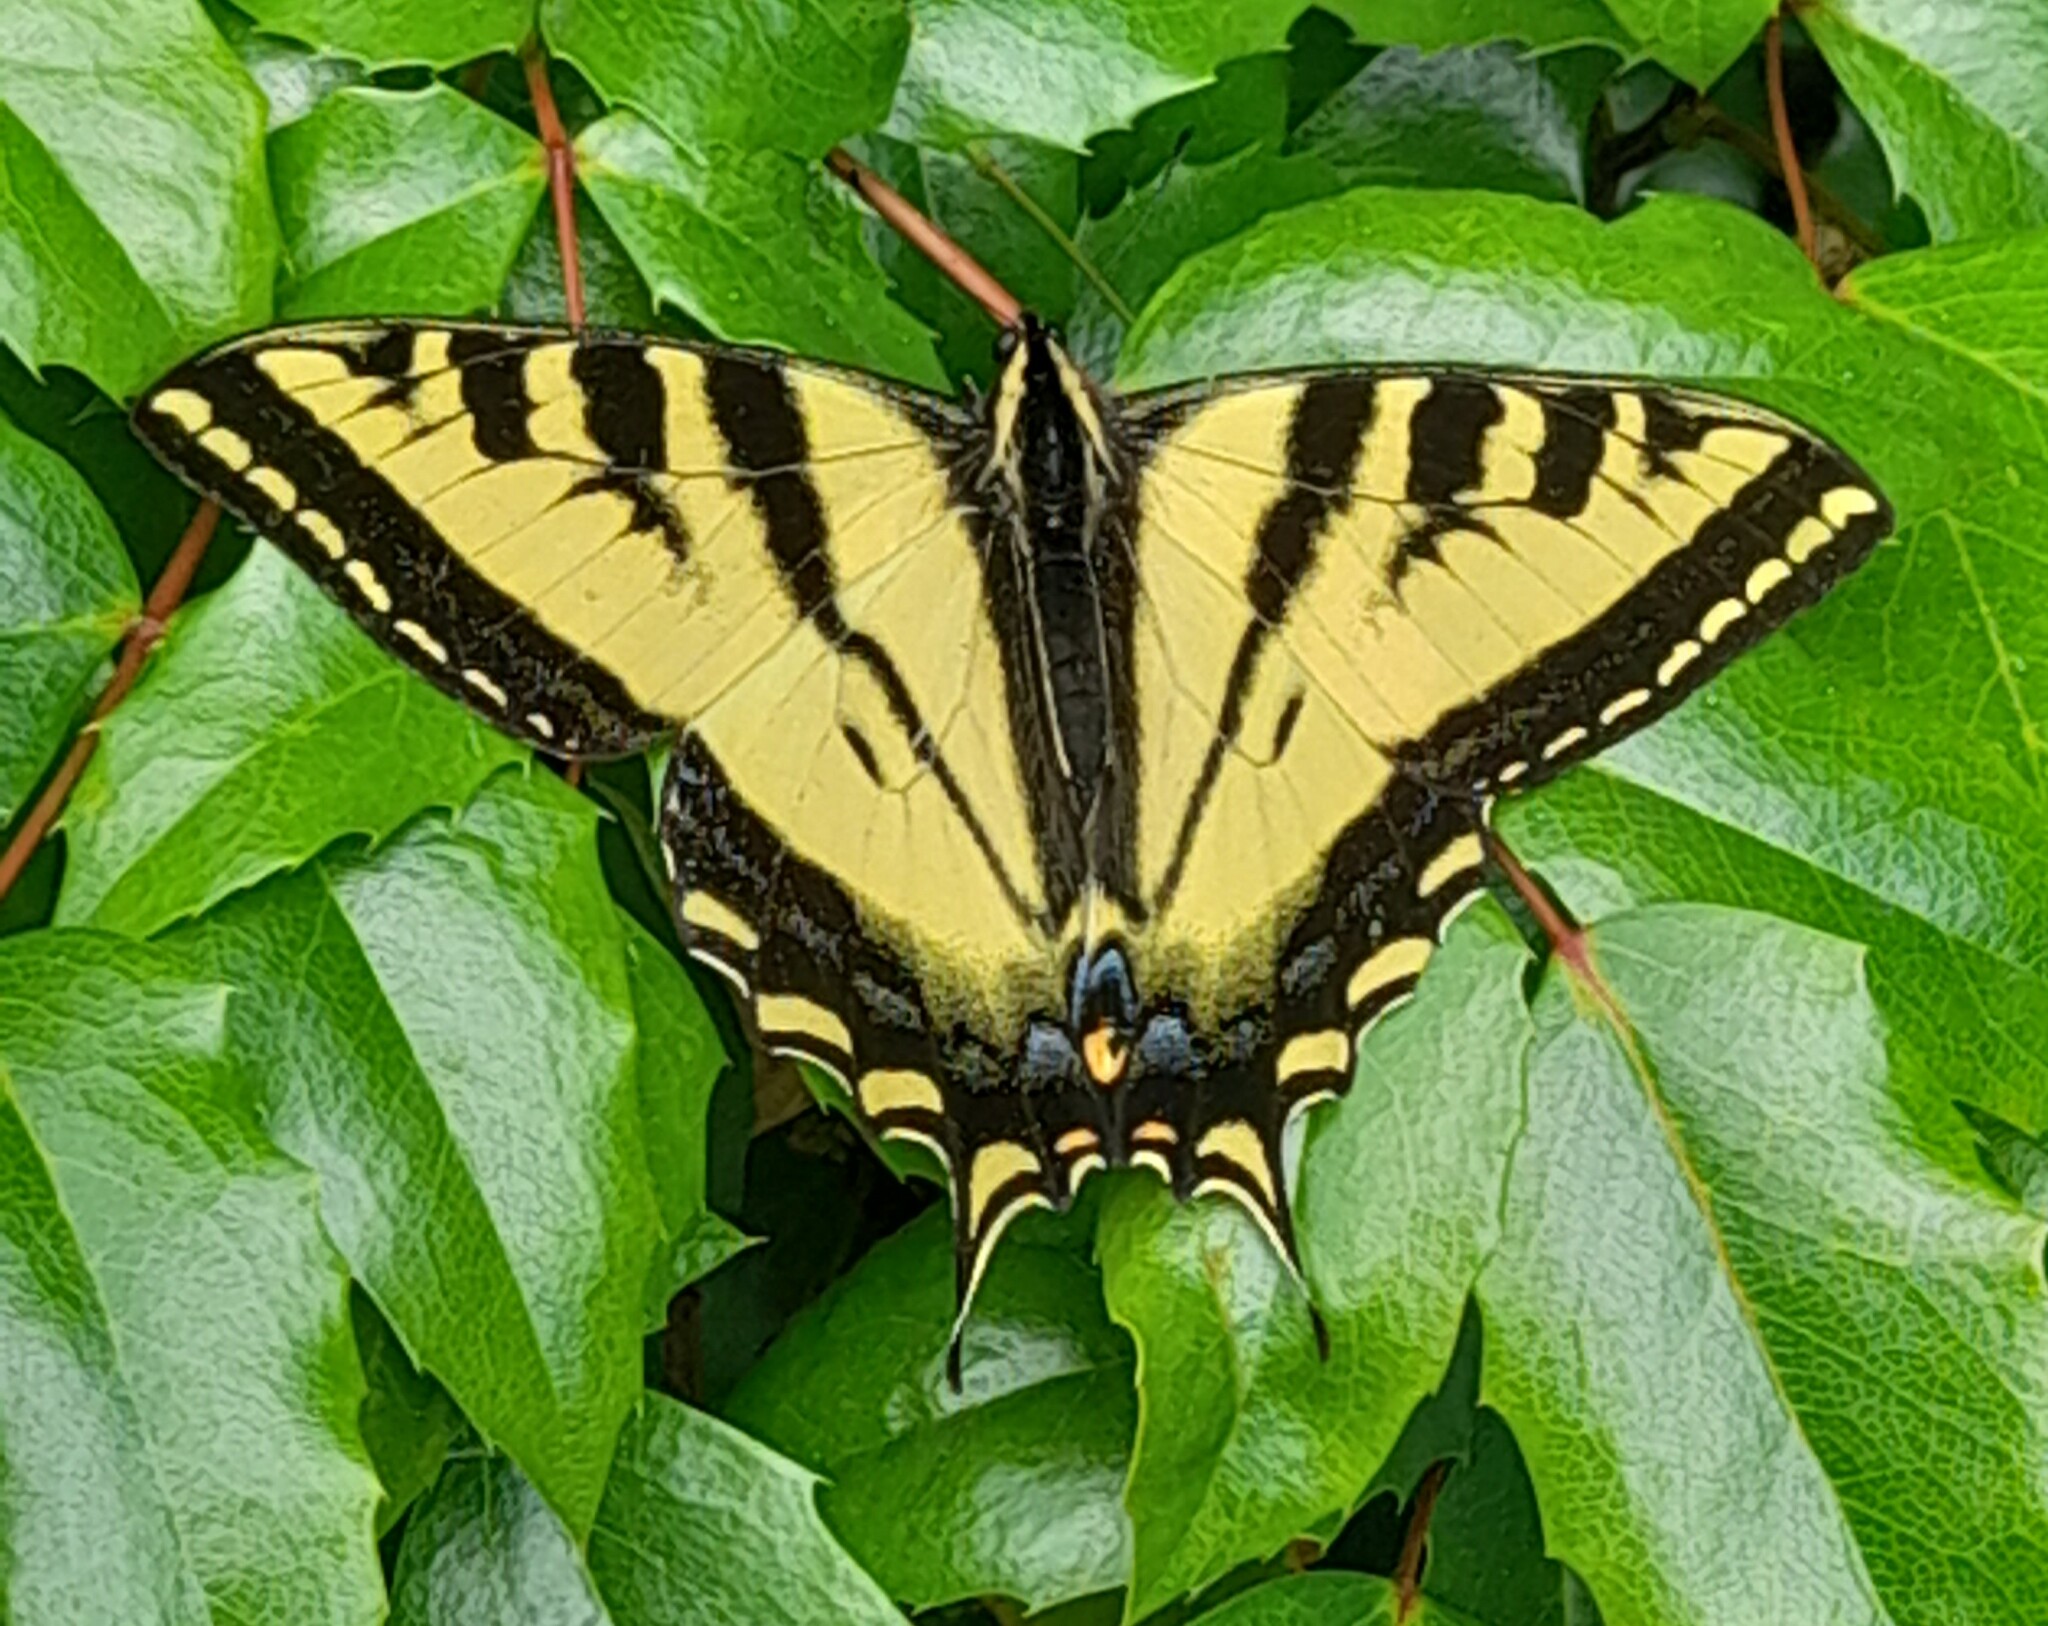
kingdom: Animalia
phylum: Arthropoda
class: Insecta
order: Lepidoptera
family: Papilionidae
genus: Papilio
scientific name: Papilio rutulus
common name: Western tiger swallowtail
